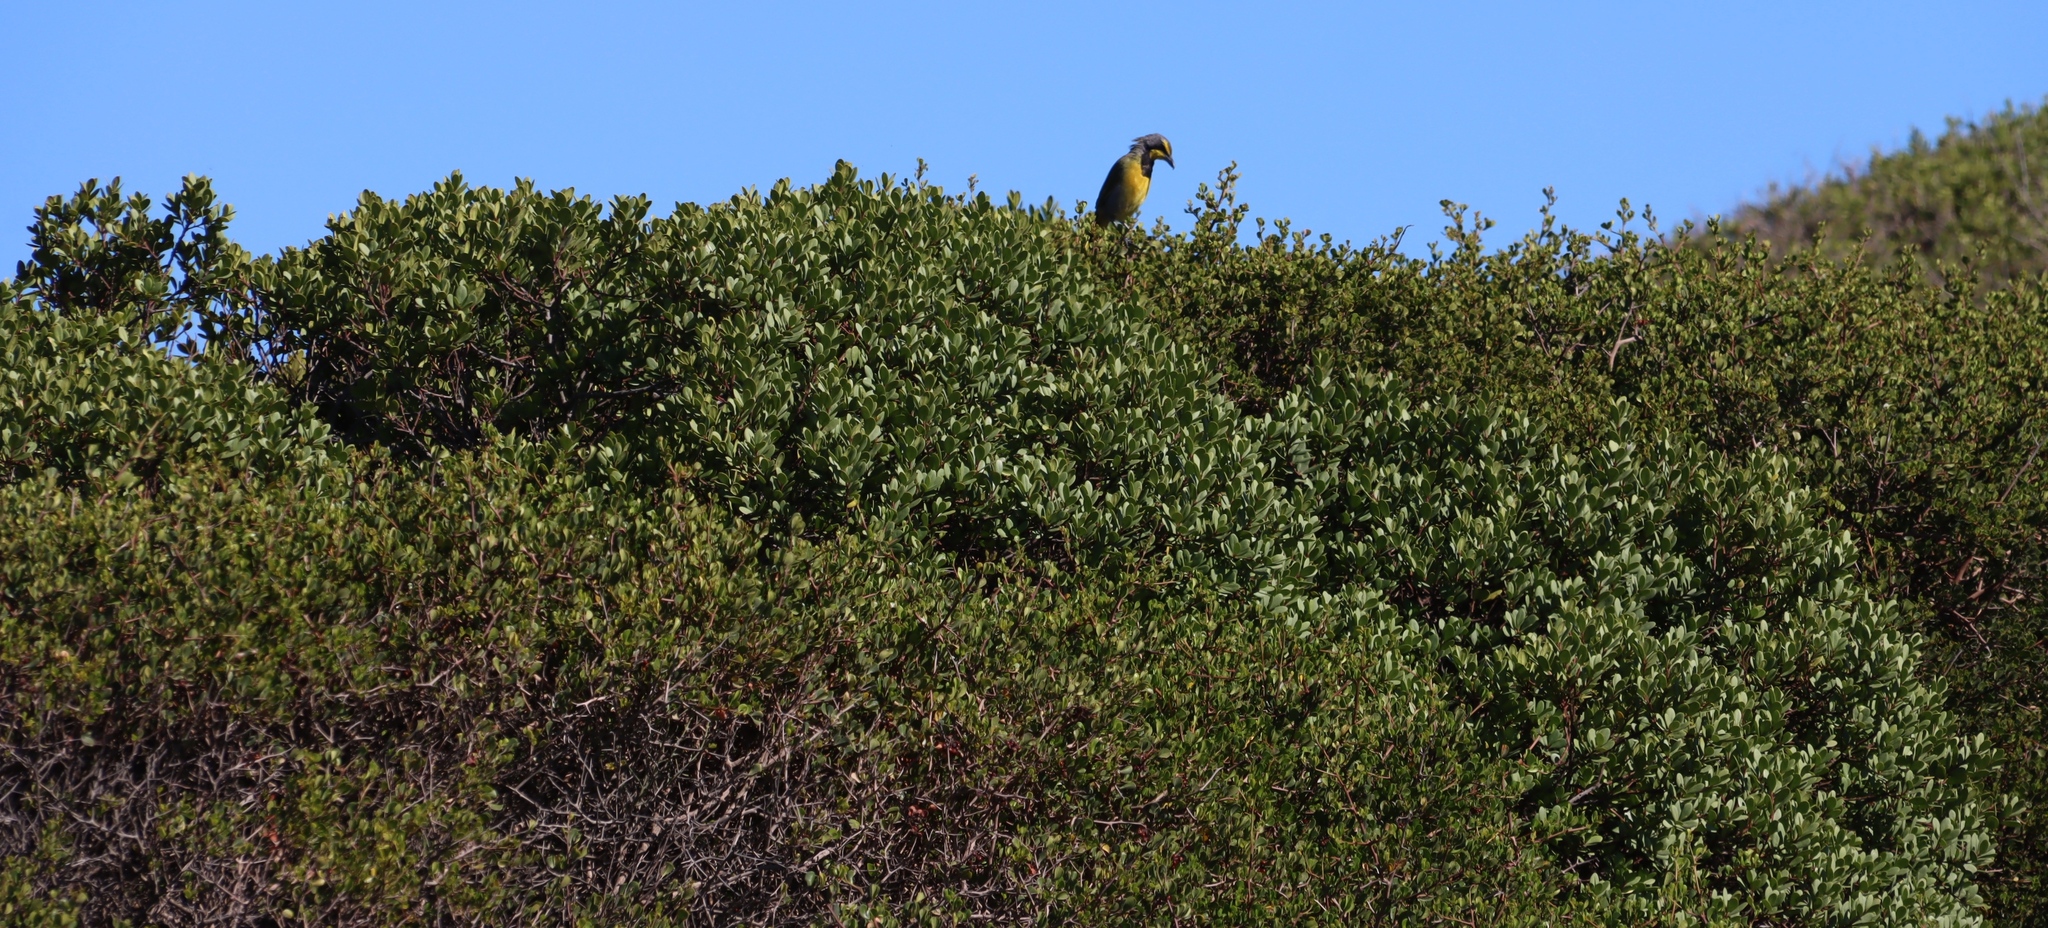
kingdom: Plantae
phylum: Tracheophyta
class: Magnoliopsida
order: Sapindales
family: Anacardiaceae
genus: Searsia
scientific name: Searsia glauca
